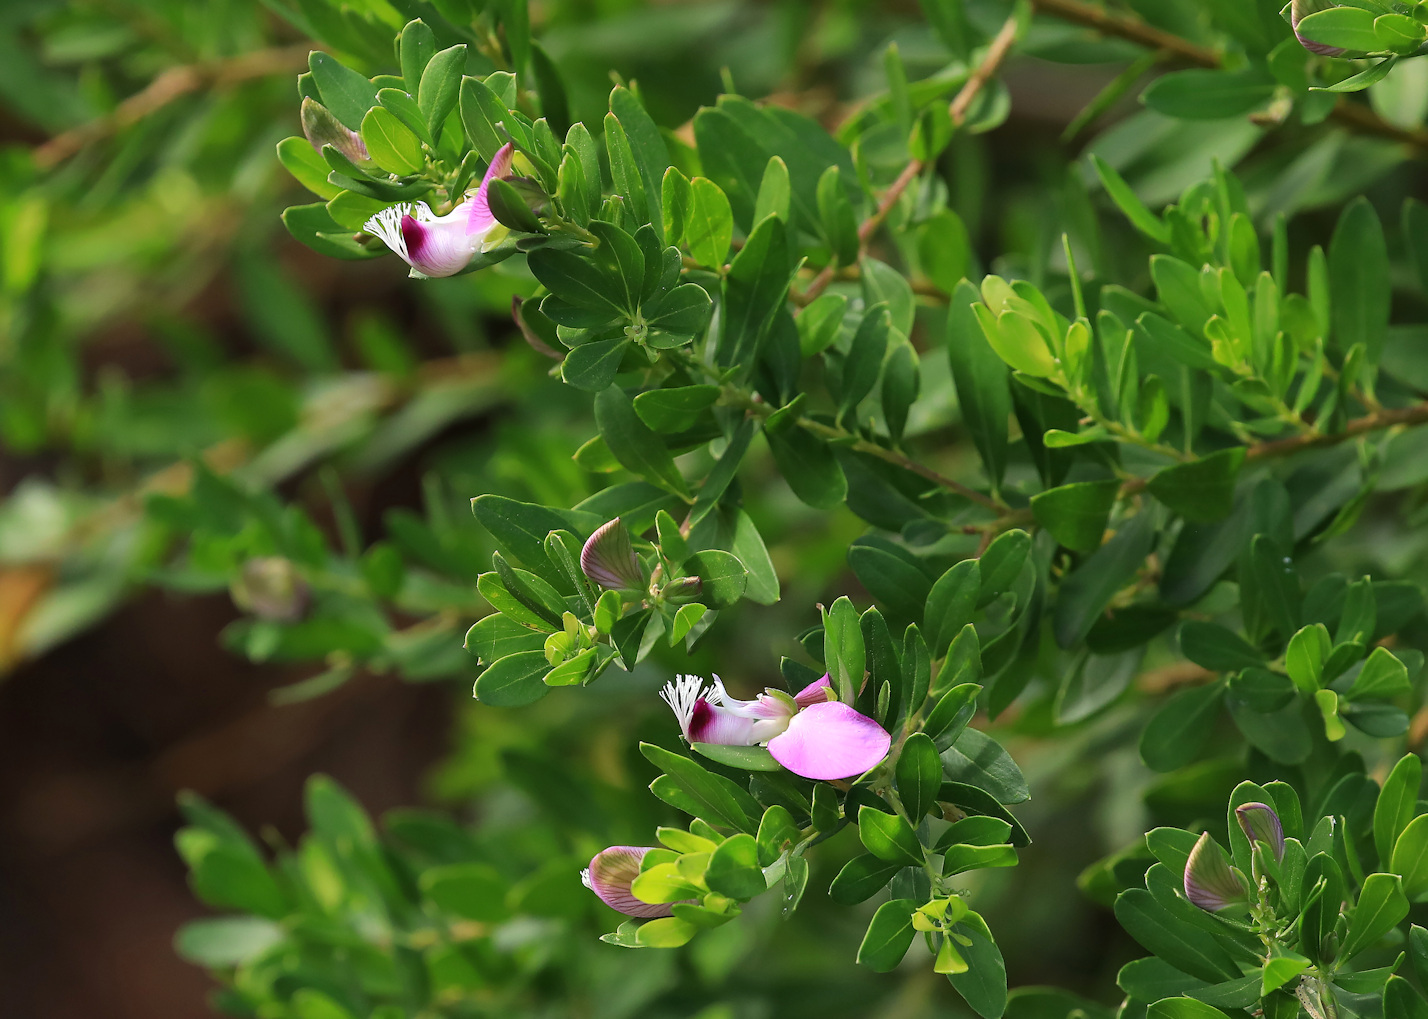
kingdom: Plantae
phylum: Tracheophyta
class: Magnoliopsida
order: Fabales
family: Polygalaceae
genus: Polygala
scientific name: Polygala myrtifolia
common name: Myrtle-leaf milkwort
